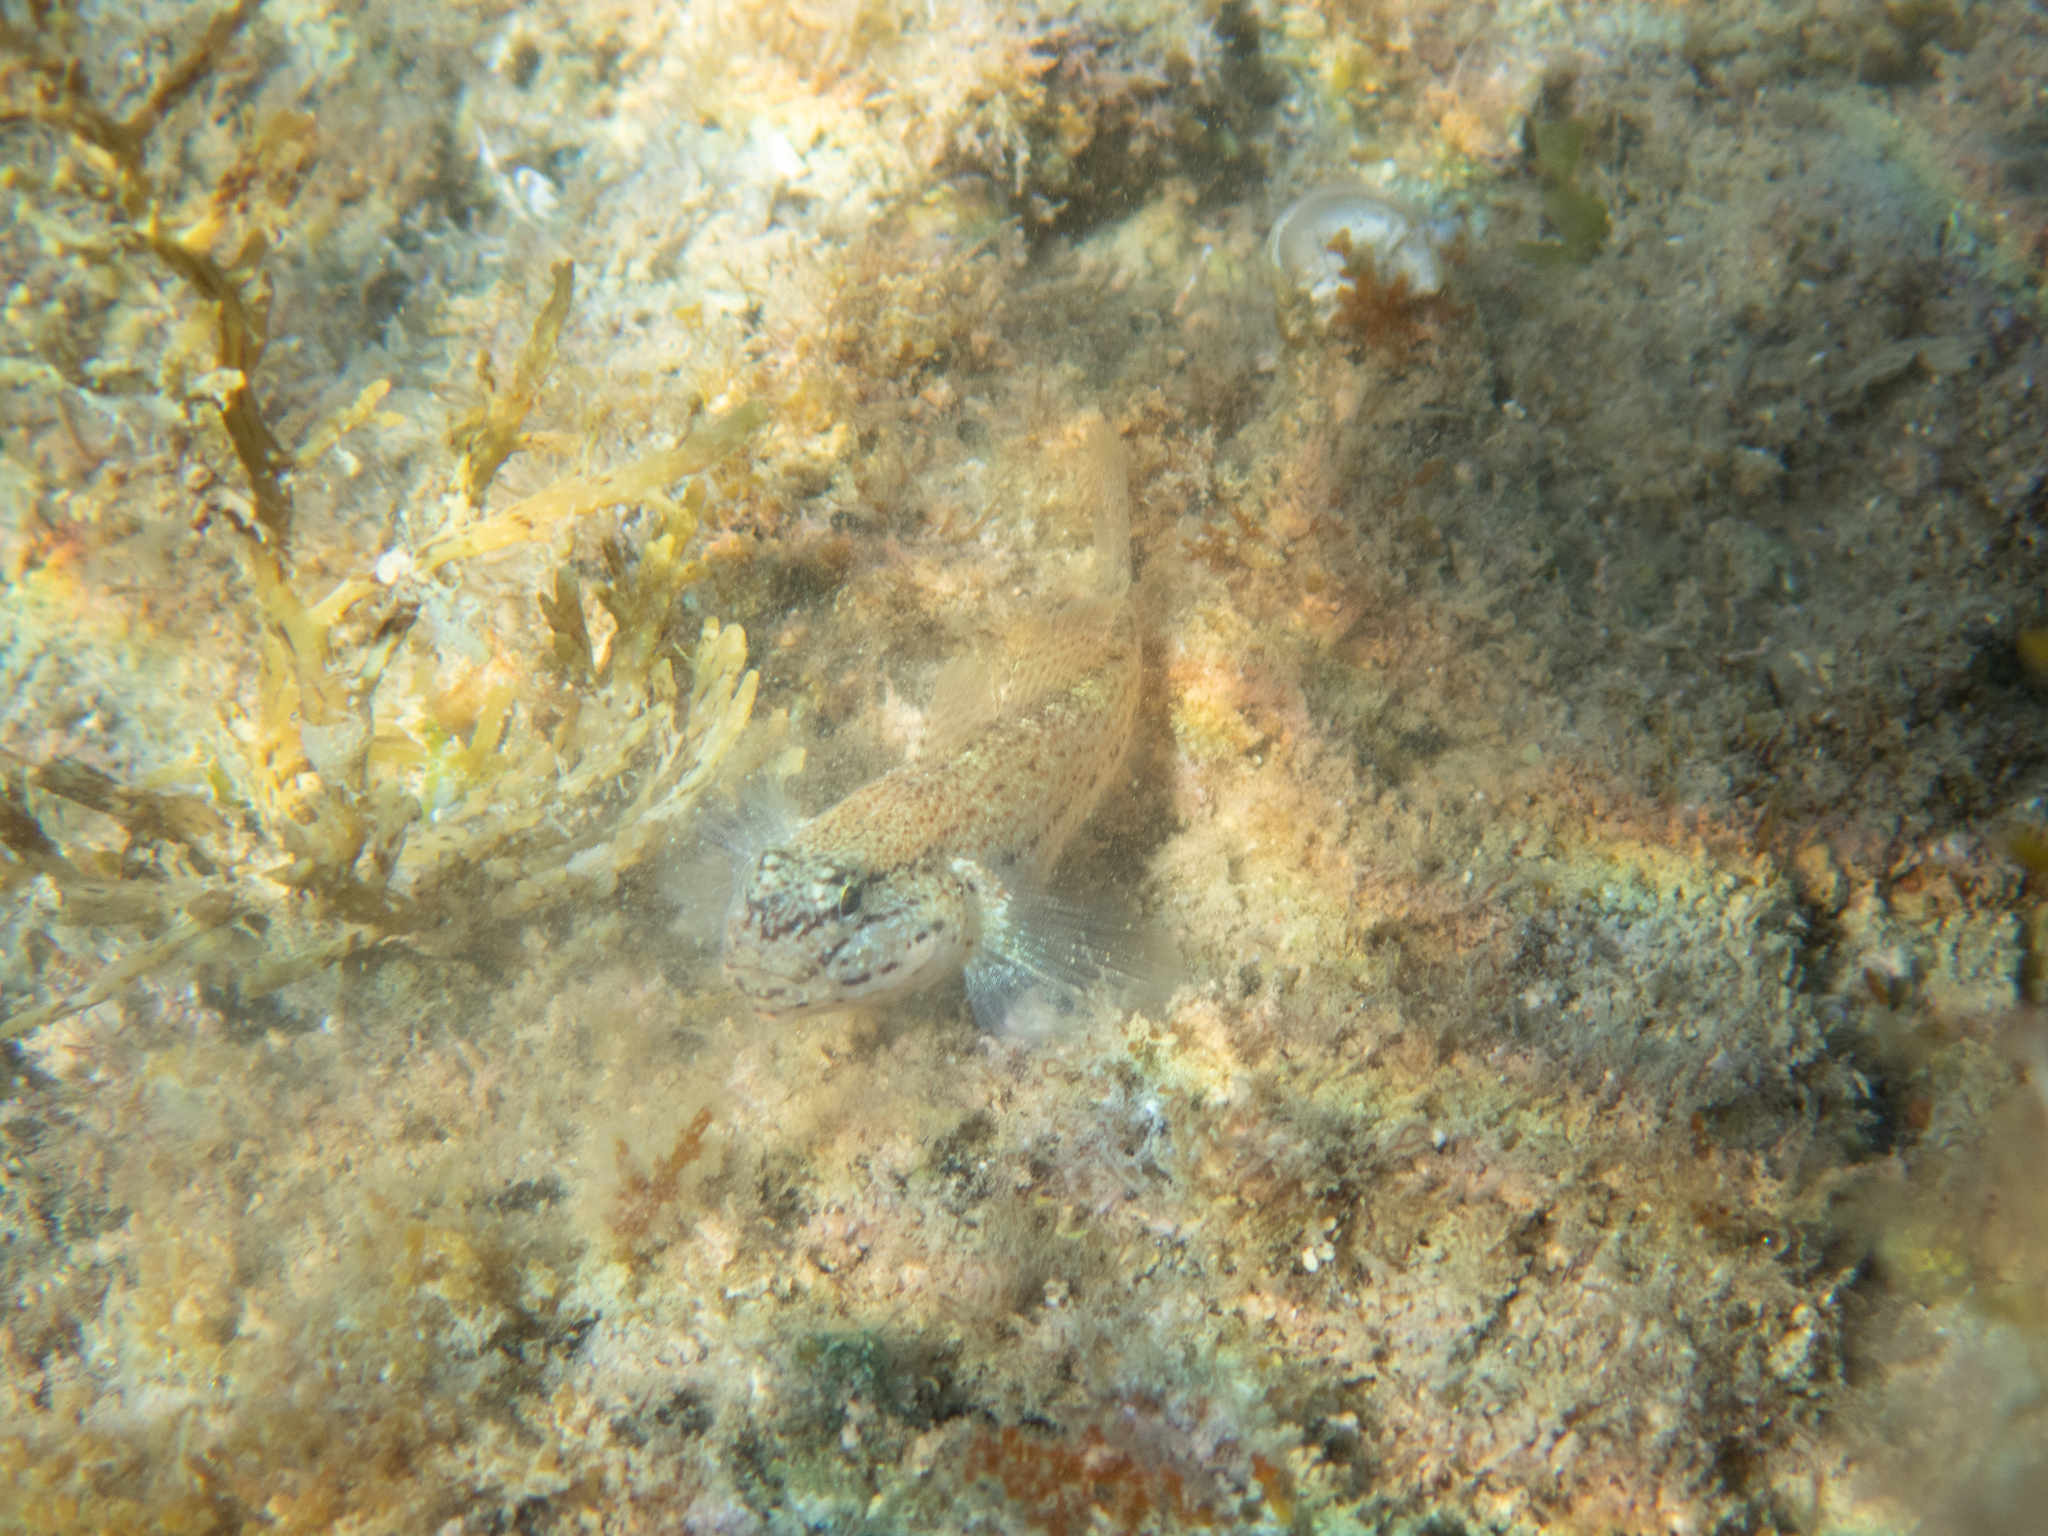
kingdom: Animalia
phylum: Chordata
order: Perciformes
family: Gobiidae
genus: Gobius
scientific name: Gobius bucchichi
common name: Bucchich's goby
